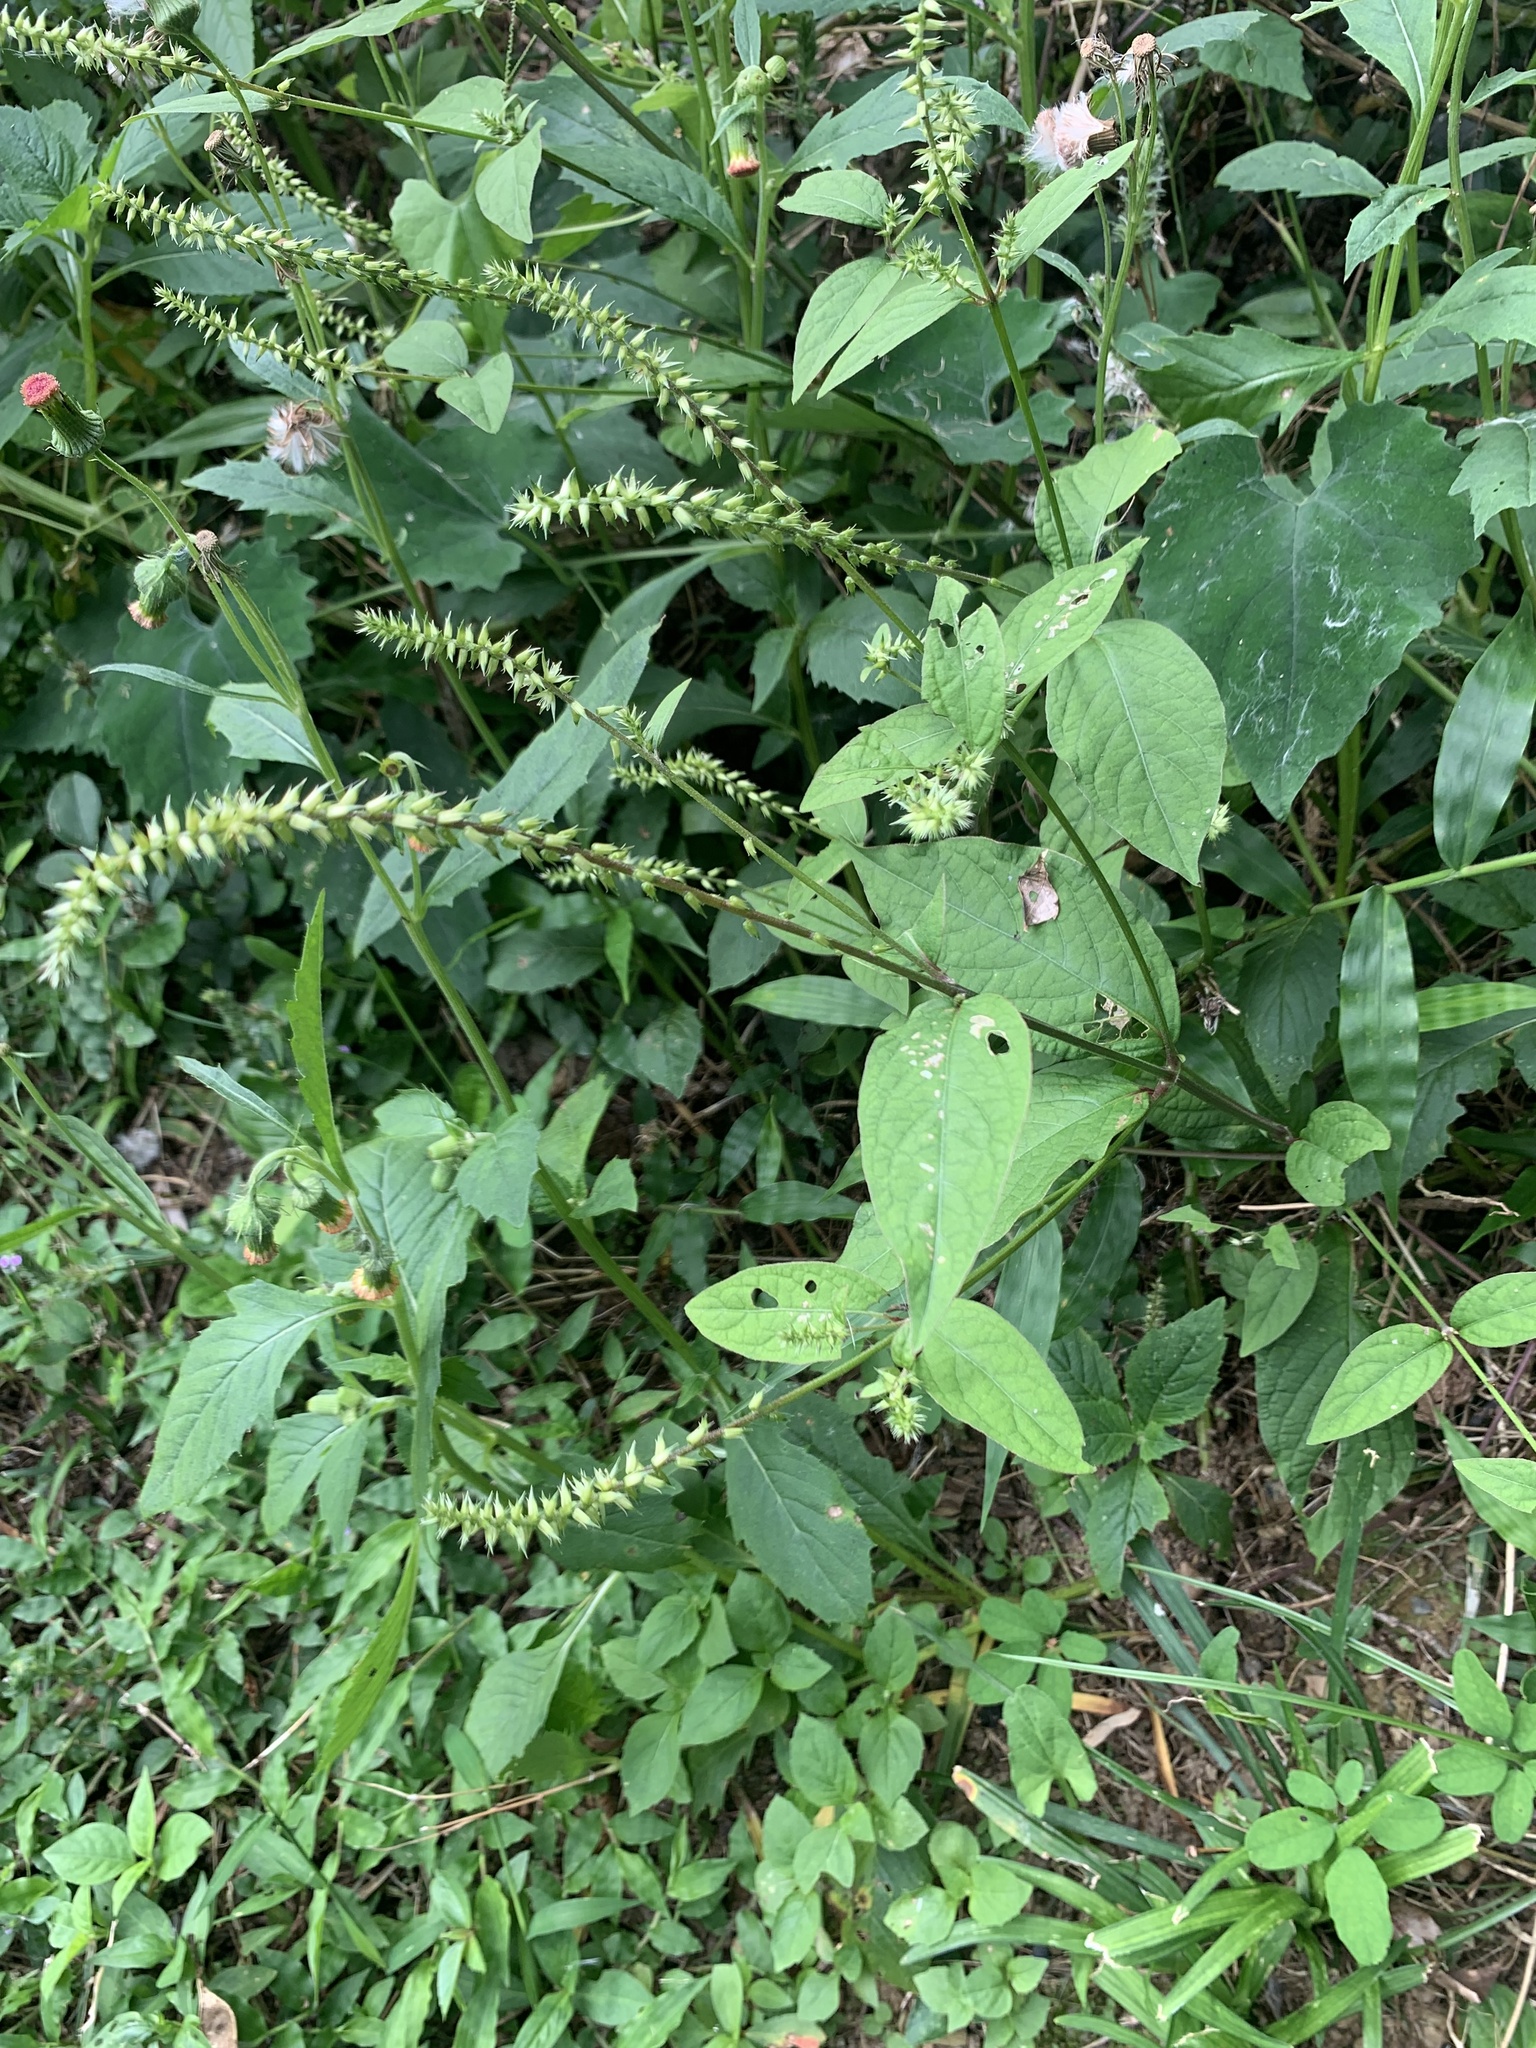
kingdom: Plantae
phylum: Tracheophyta
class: Magnoliopsida
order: Caryophyllales
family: Amaranthaceae
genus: Achyranthes
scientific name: Achyranthes bidentata
